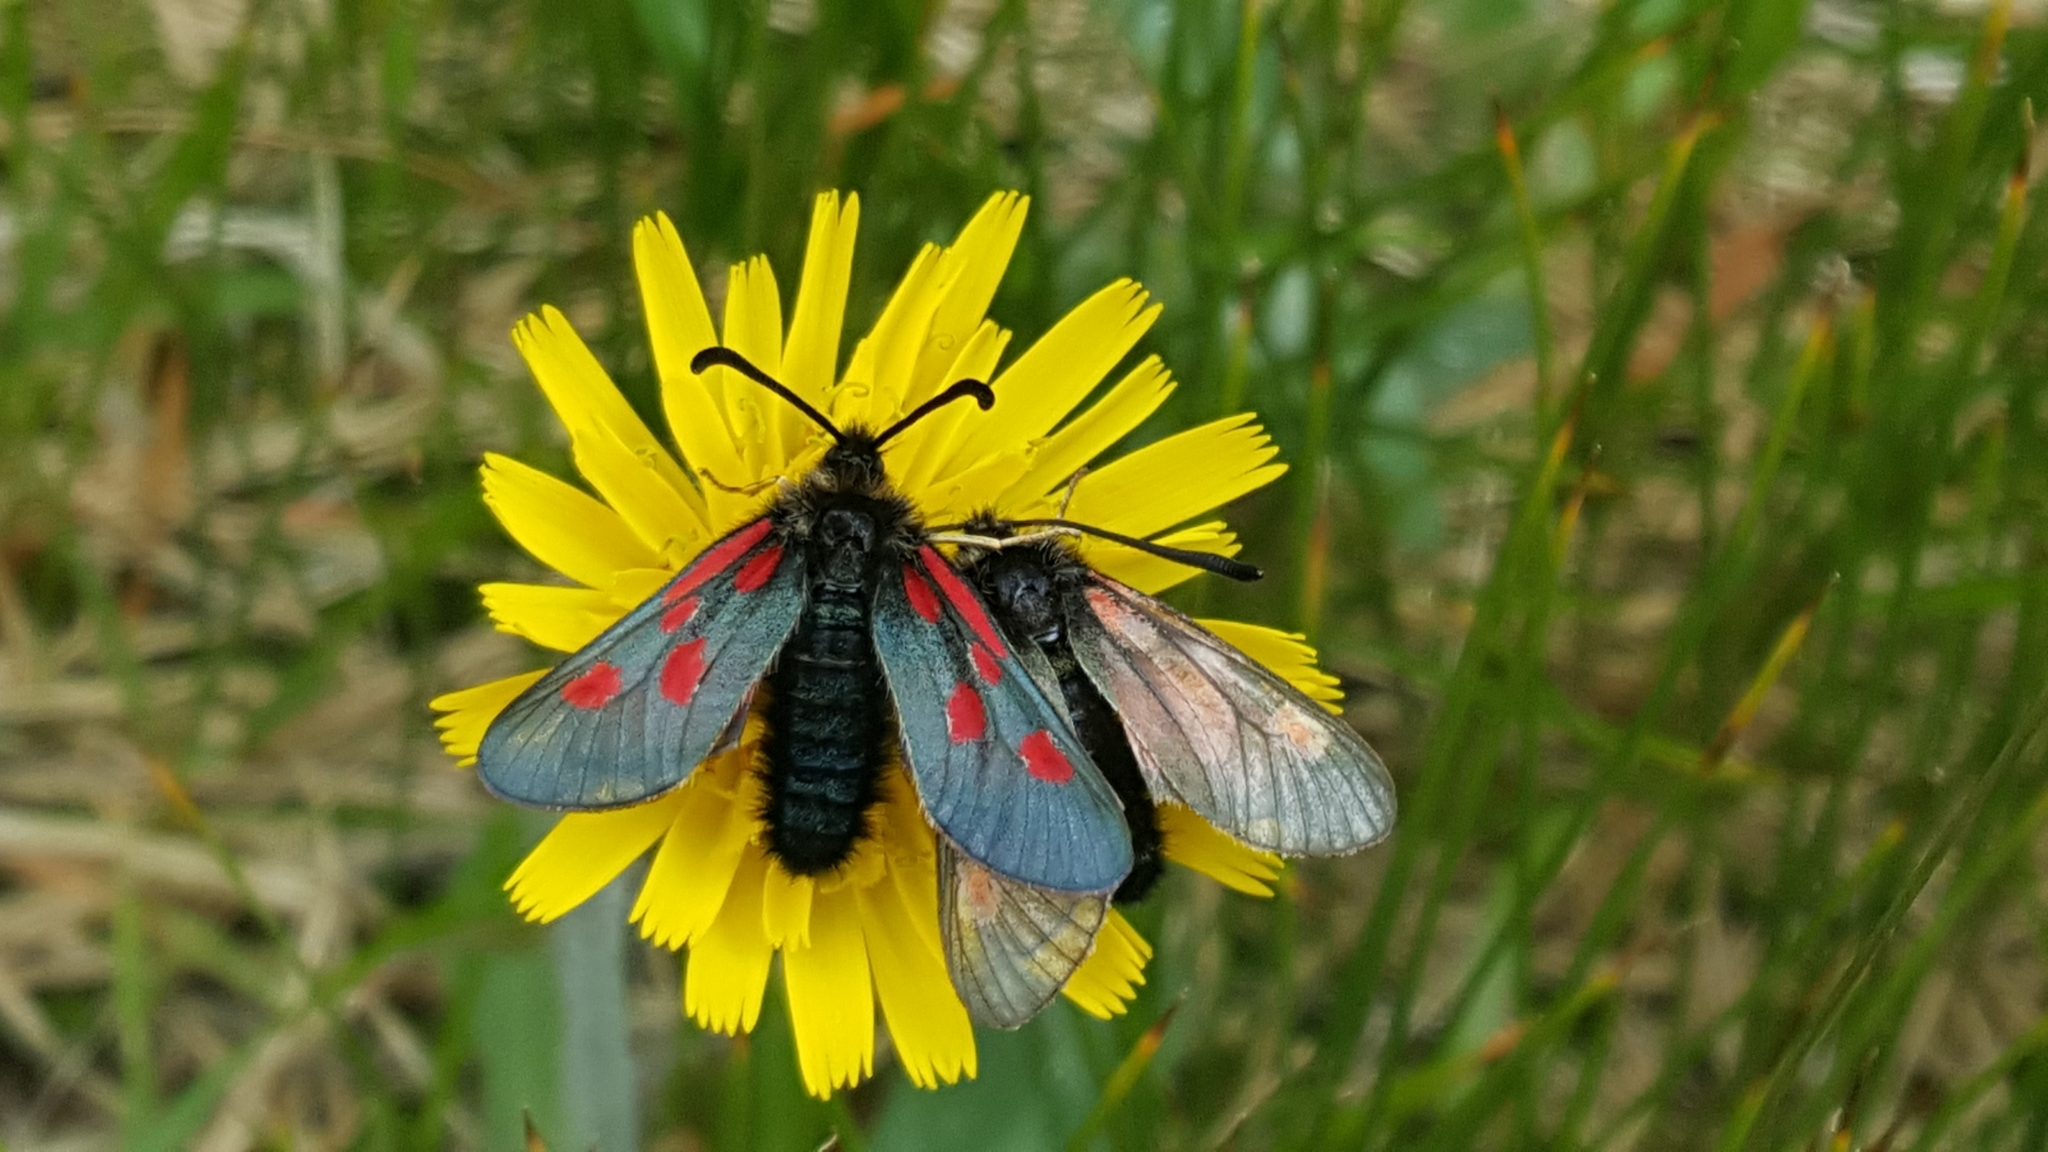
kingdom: Animalia
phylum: Arthropoda
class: Insecta
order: Lepidoptera
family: Zygaenidae
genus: Zygaena
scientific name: Zygaena exulans
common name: Scotch burnet
